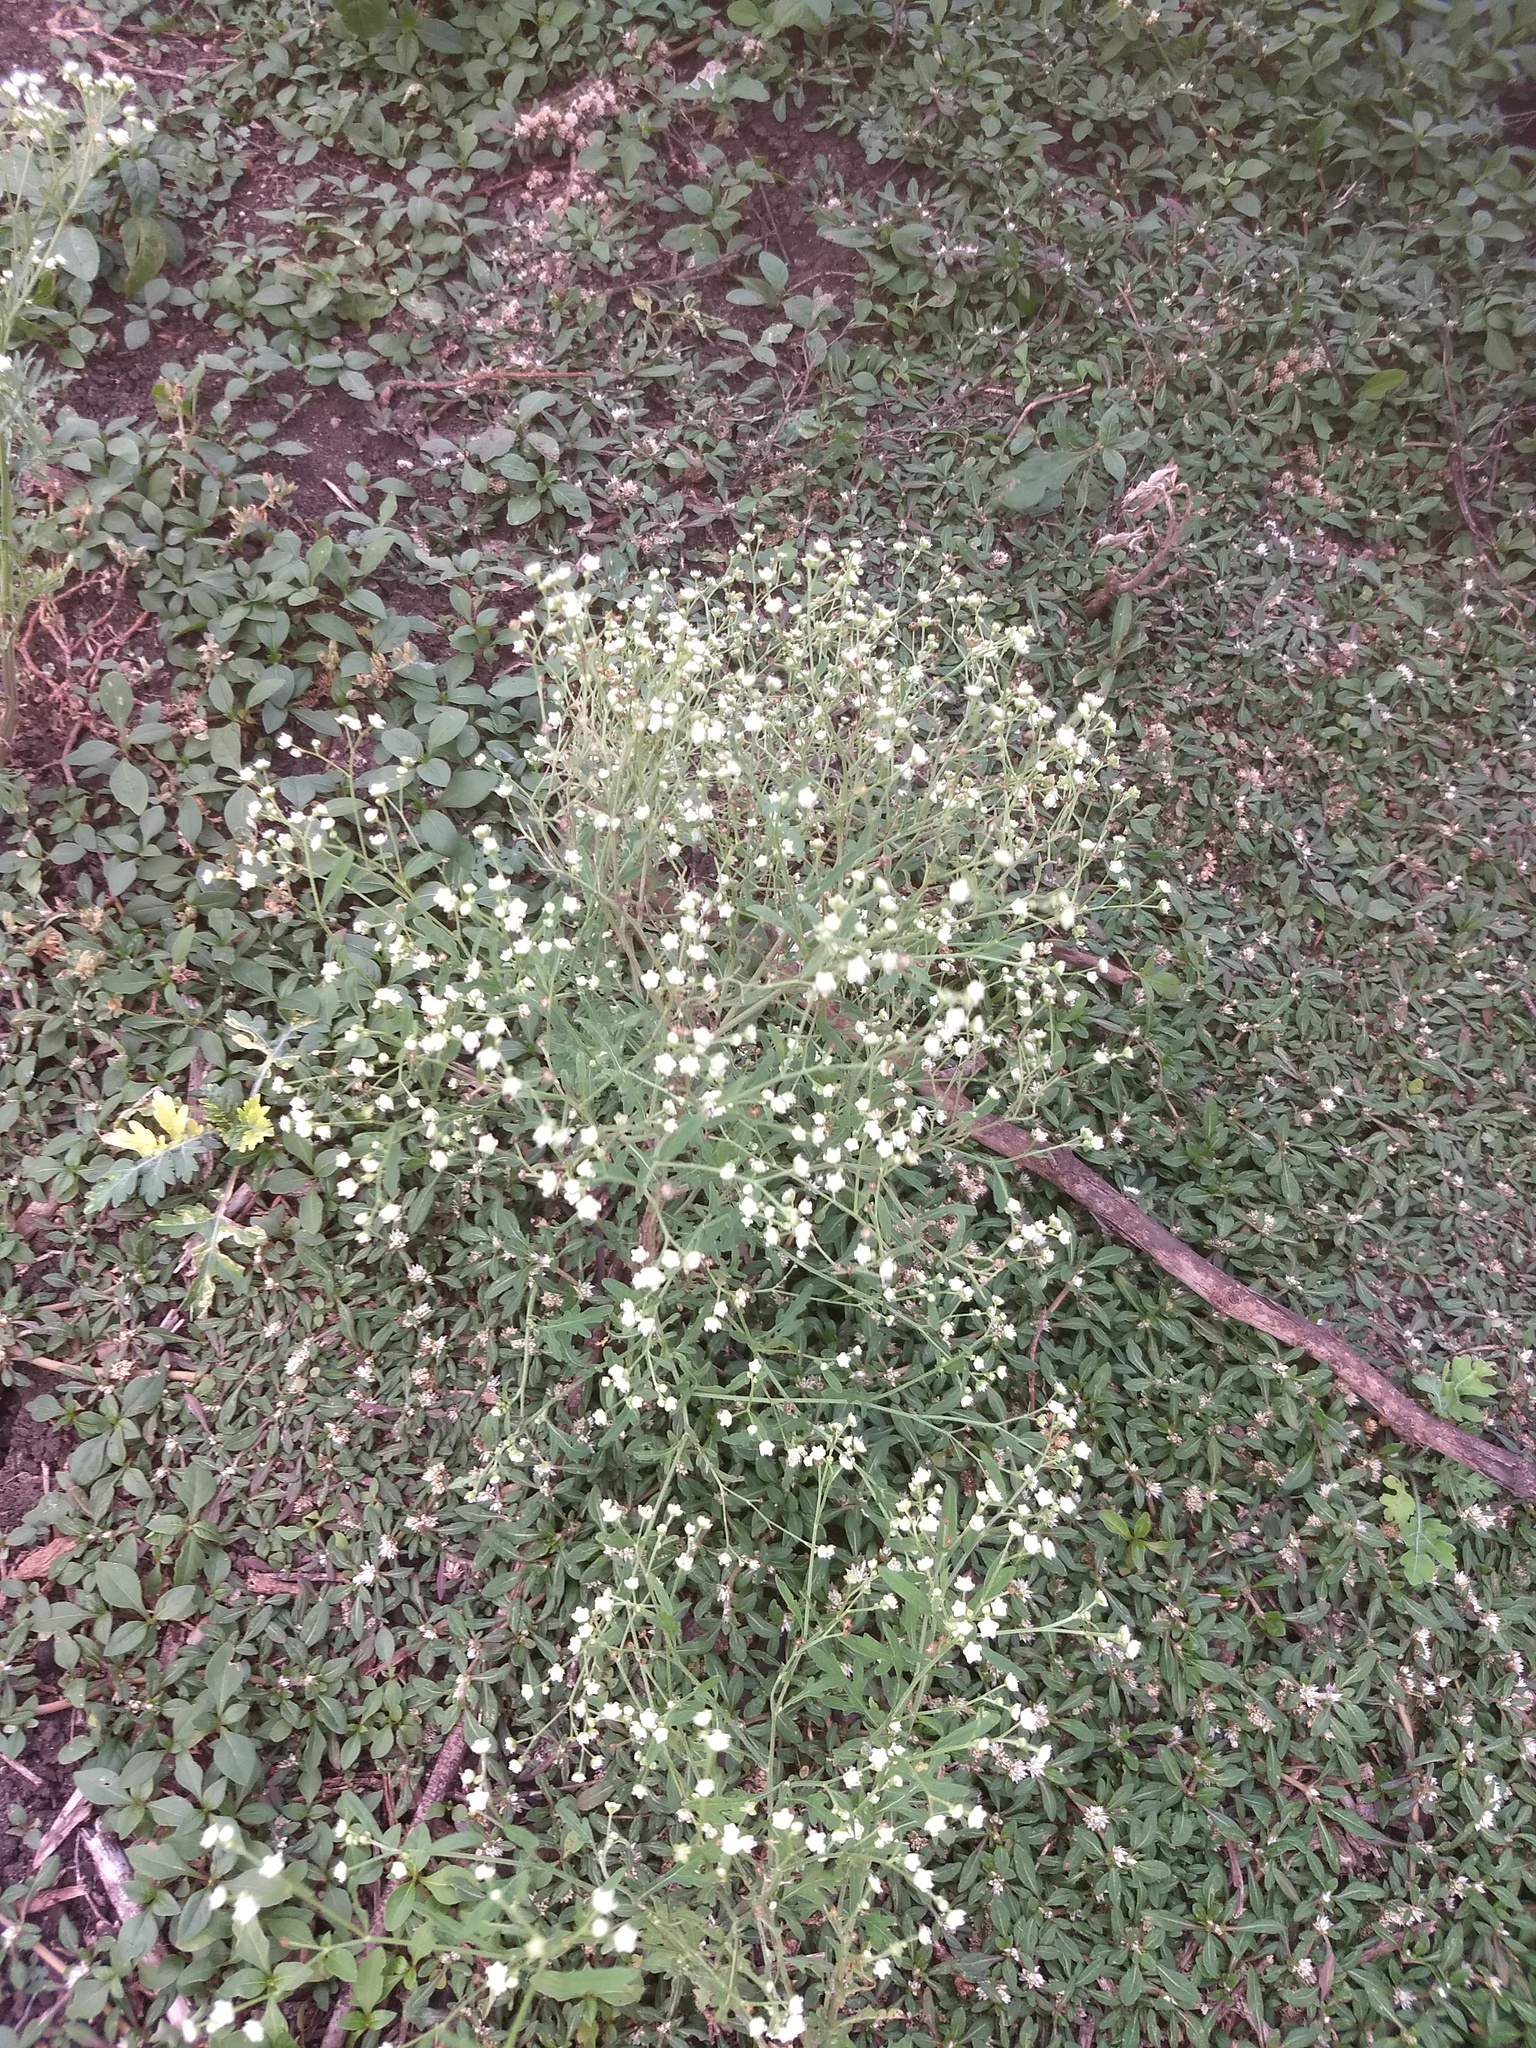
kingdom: Plantae
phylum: Tracheophyta
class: Magnoliopsida
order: Asterales
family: Asteraceae
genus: Parthenium
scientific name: Parthenium hysterophorus
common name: Santa maria feverfew
